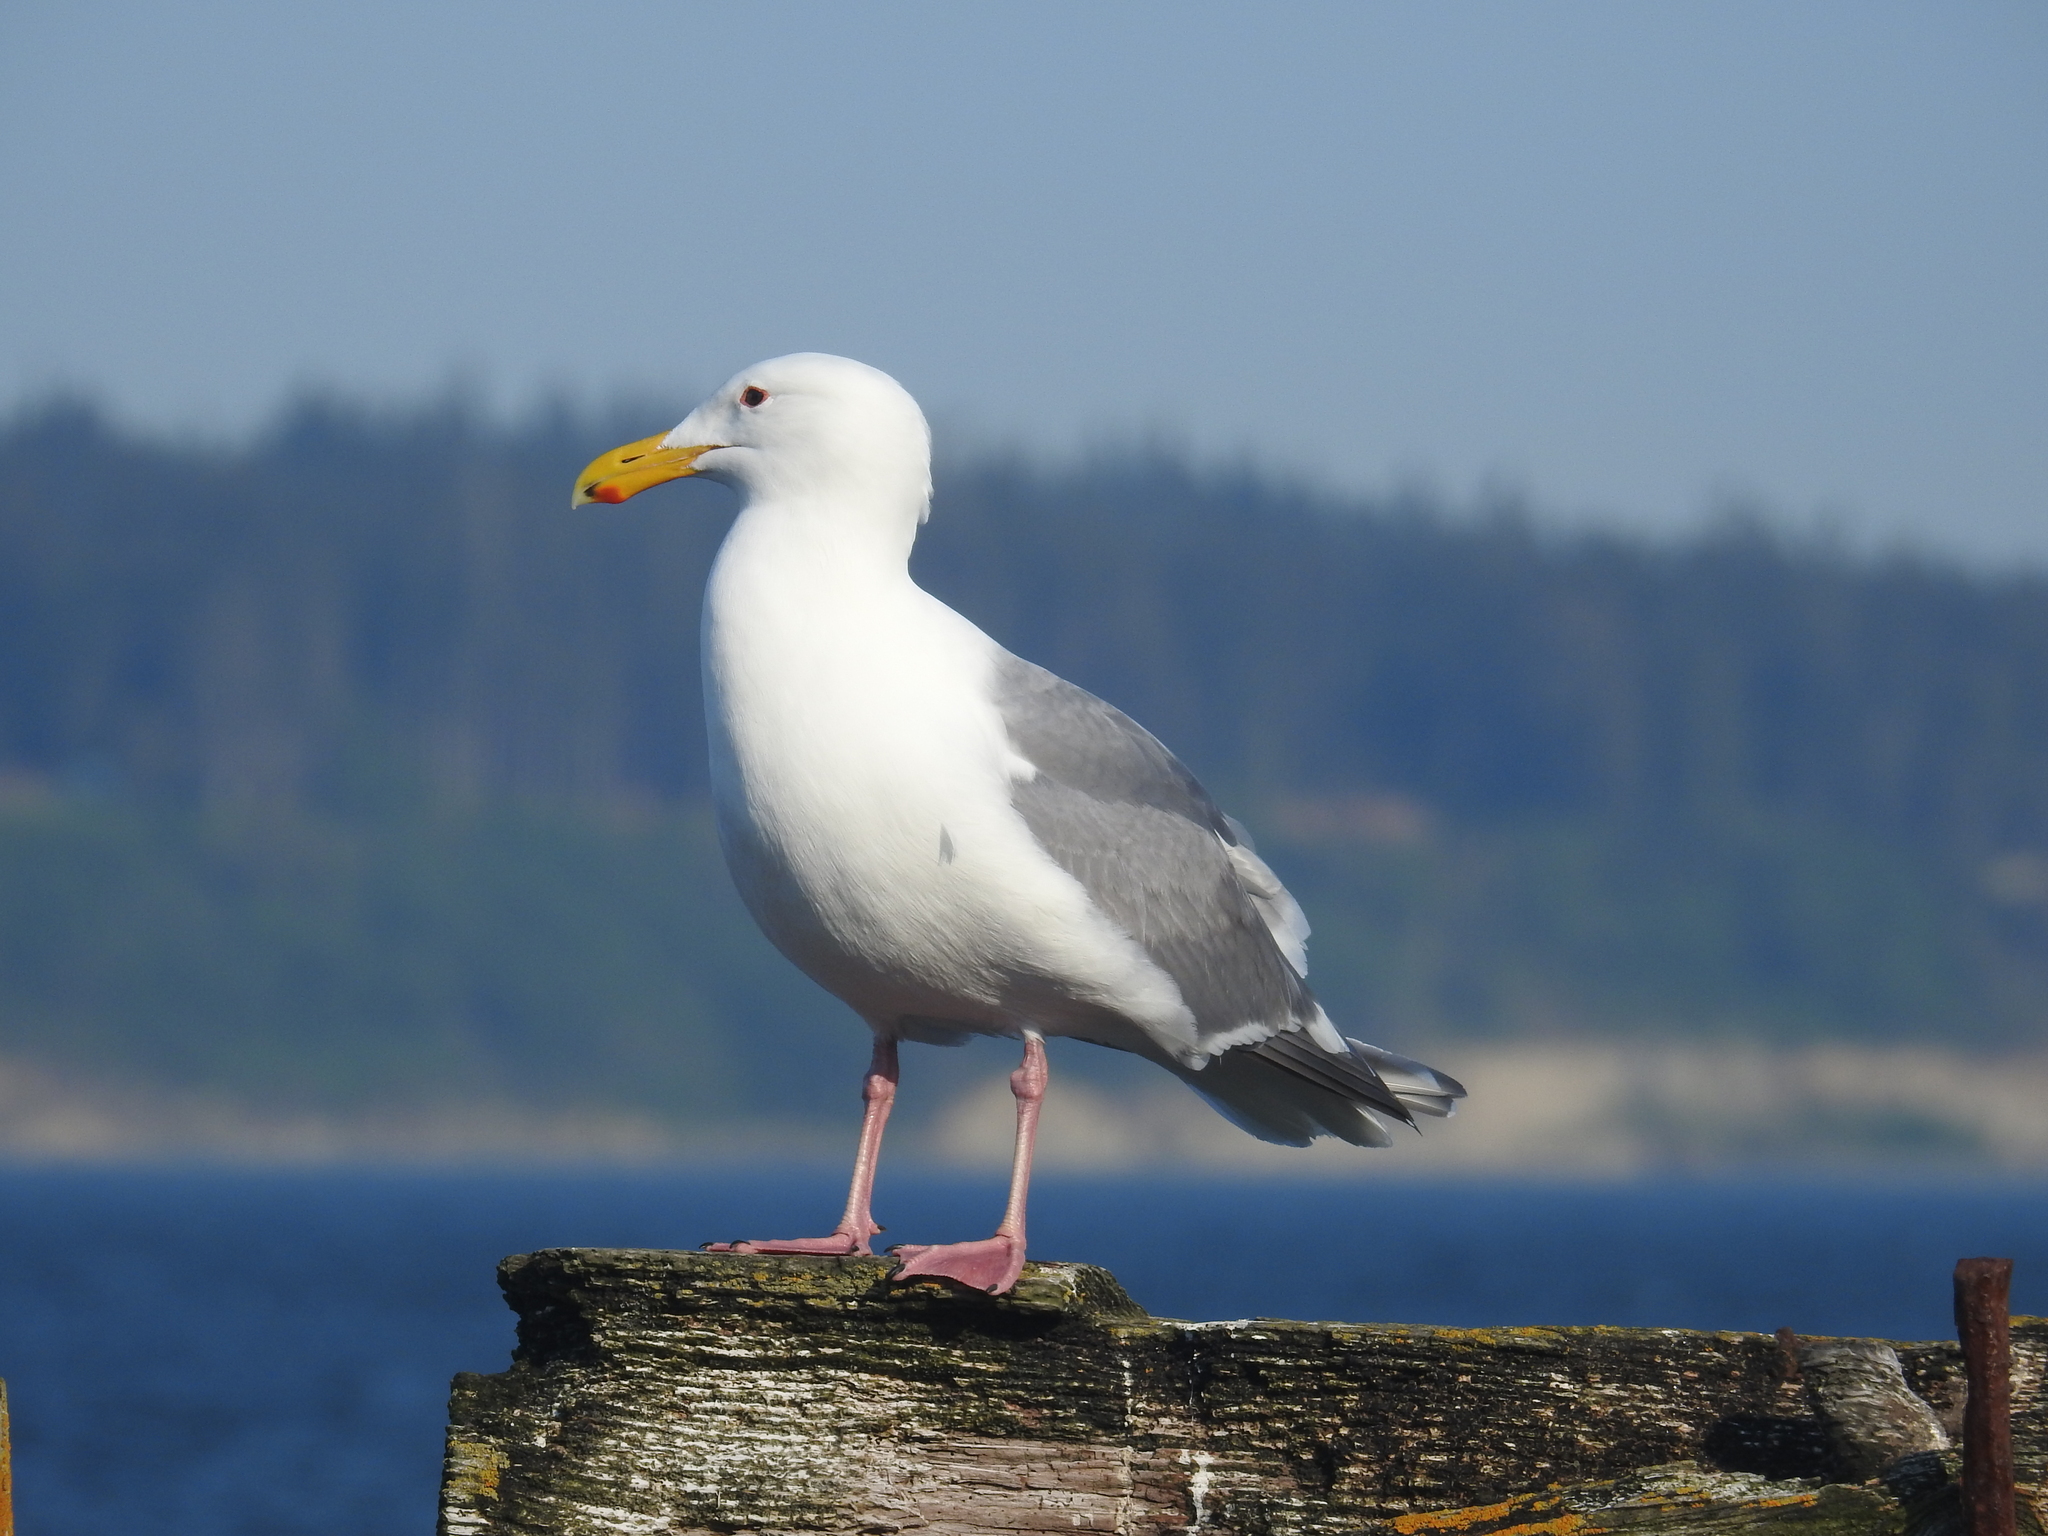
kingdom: Animalia
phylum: Chordata
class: Aves
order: Charadriiformes
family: Laridae
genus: Larus
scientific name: Larus occidentalis
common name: Western gull
